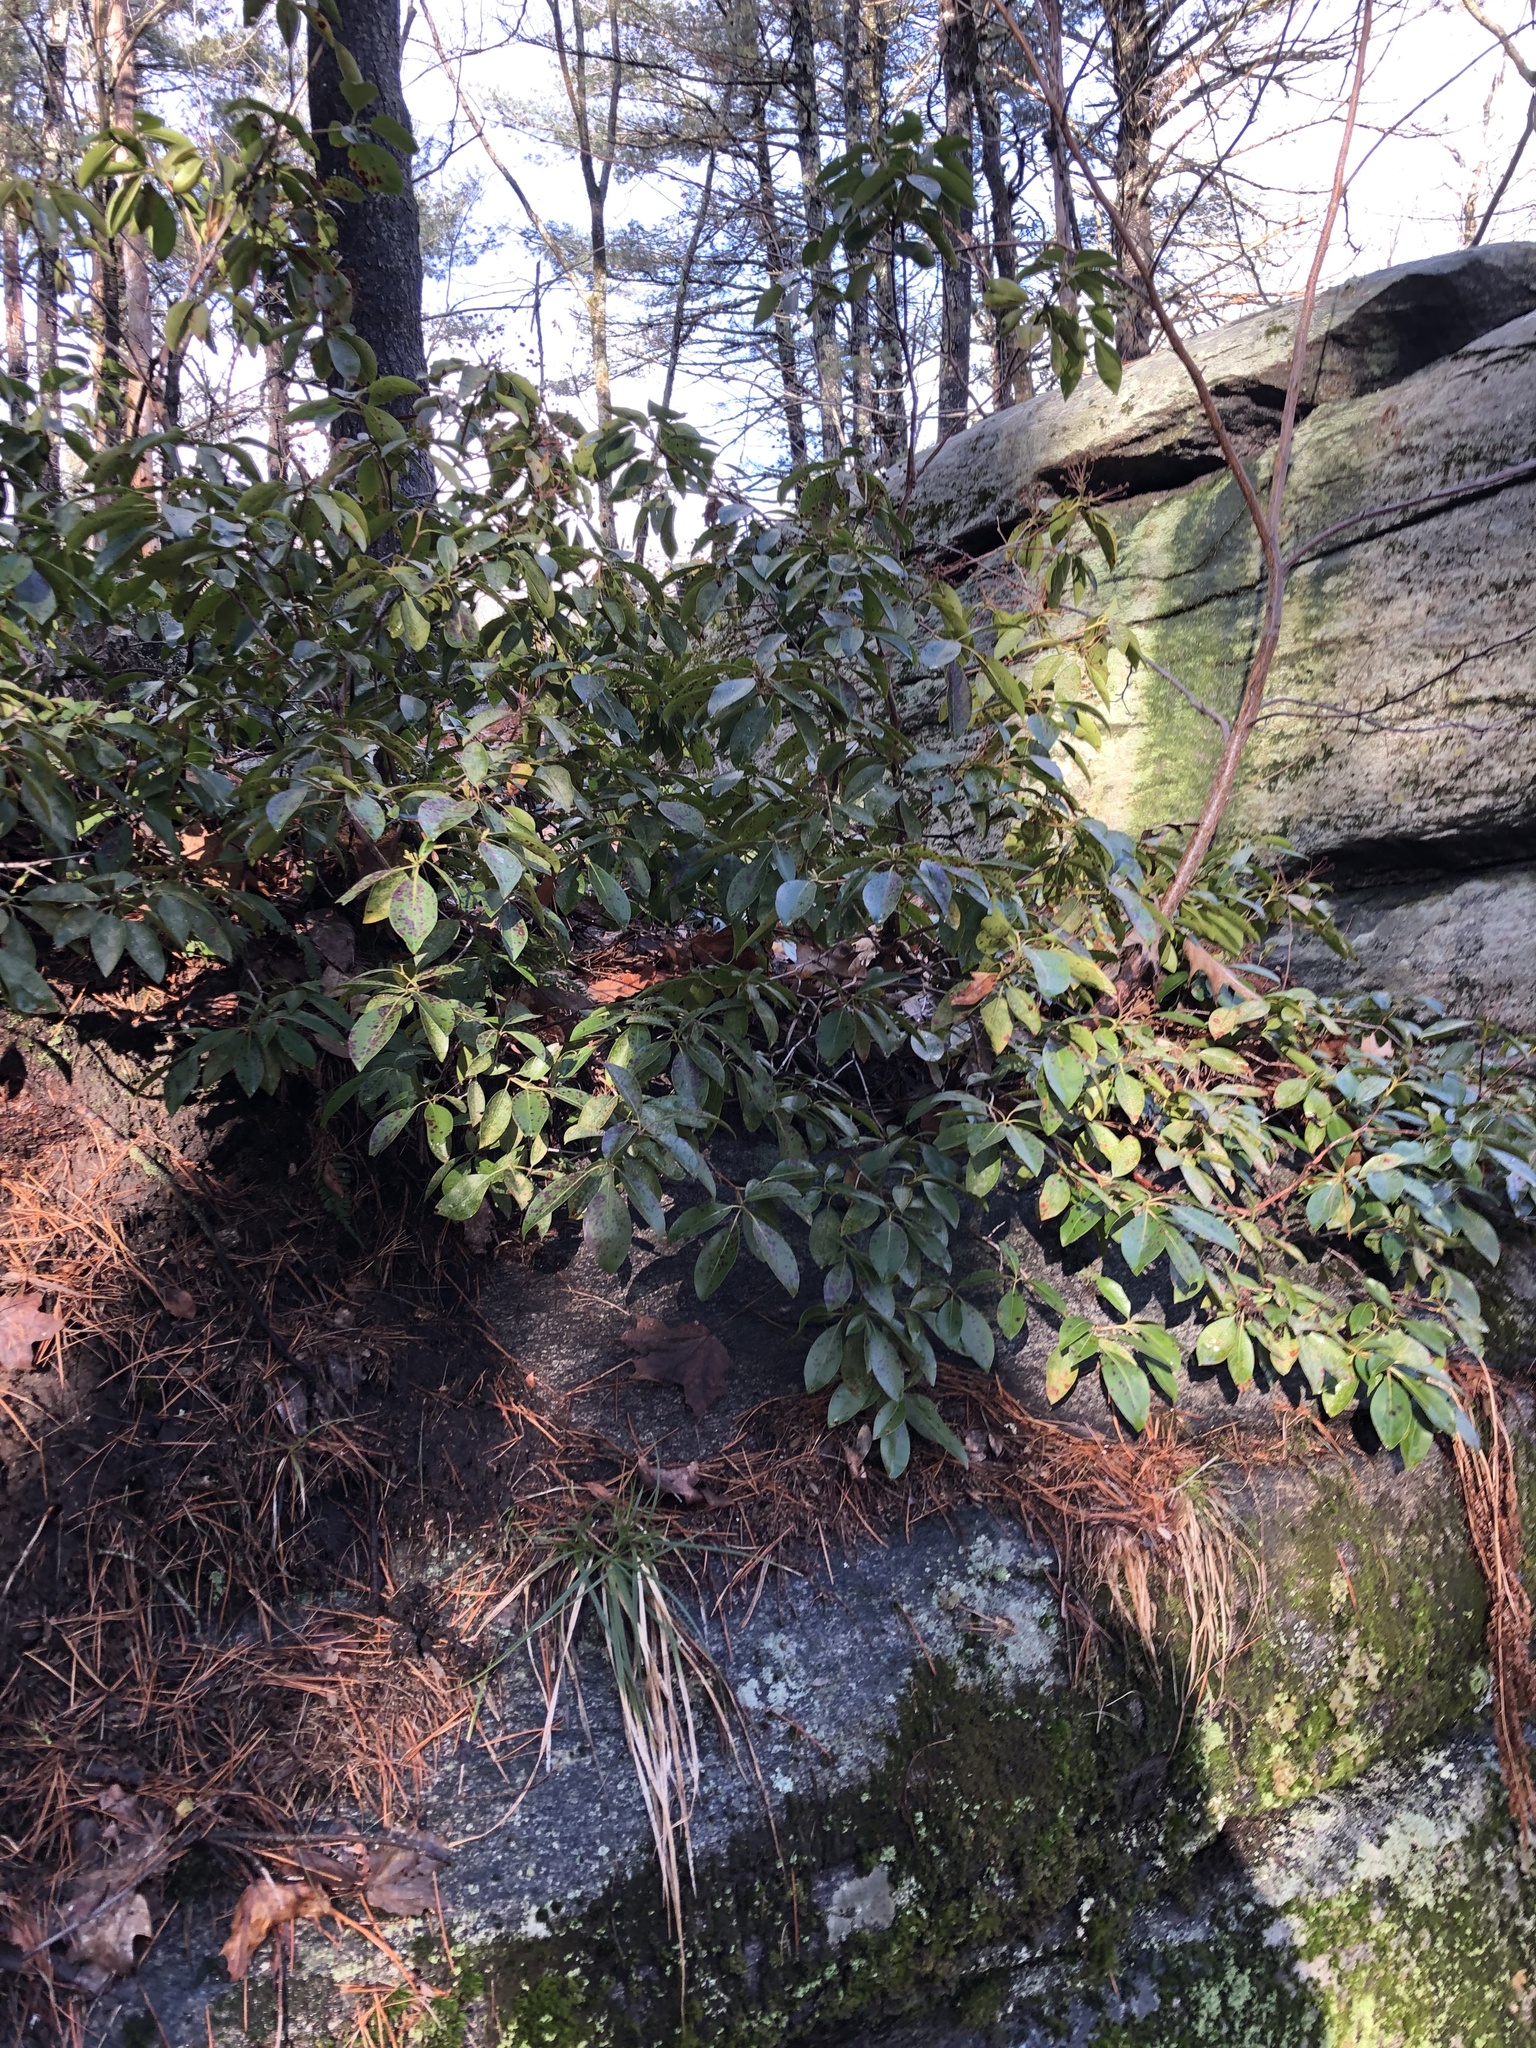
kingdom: Plantae
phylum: Tracheophyta
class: Magnoliopsida
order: Ericales
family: Ericaceae
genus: Kalmia
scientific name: Kalmia latifolia
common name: Mountain-laurel
